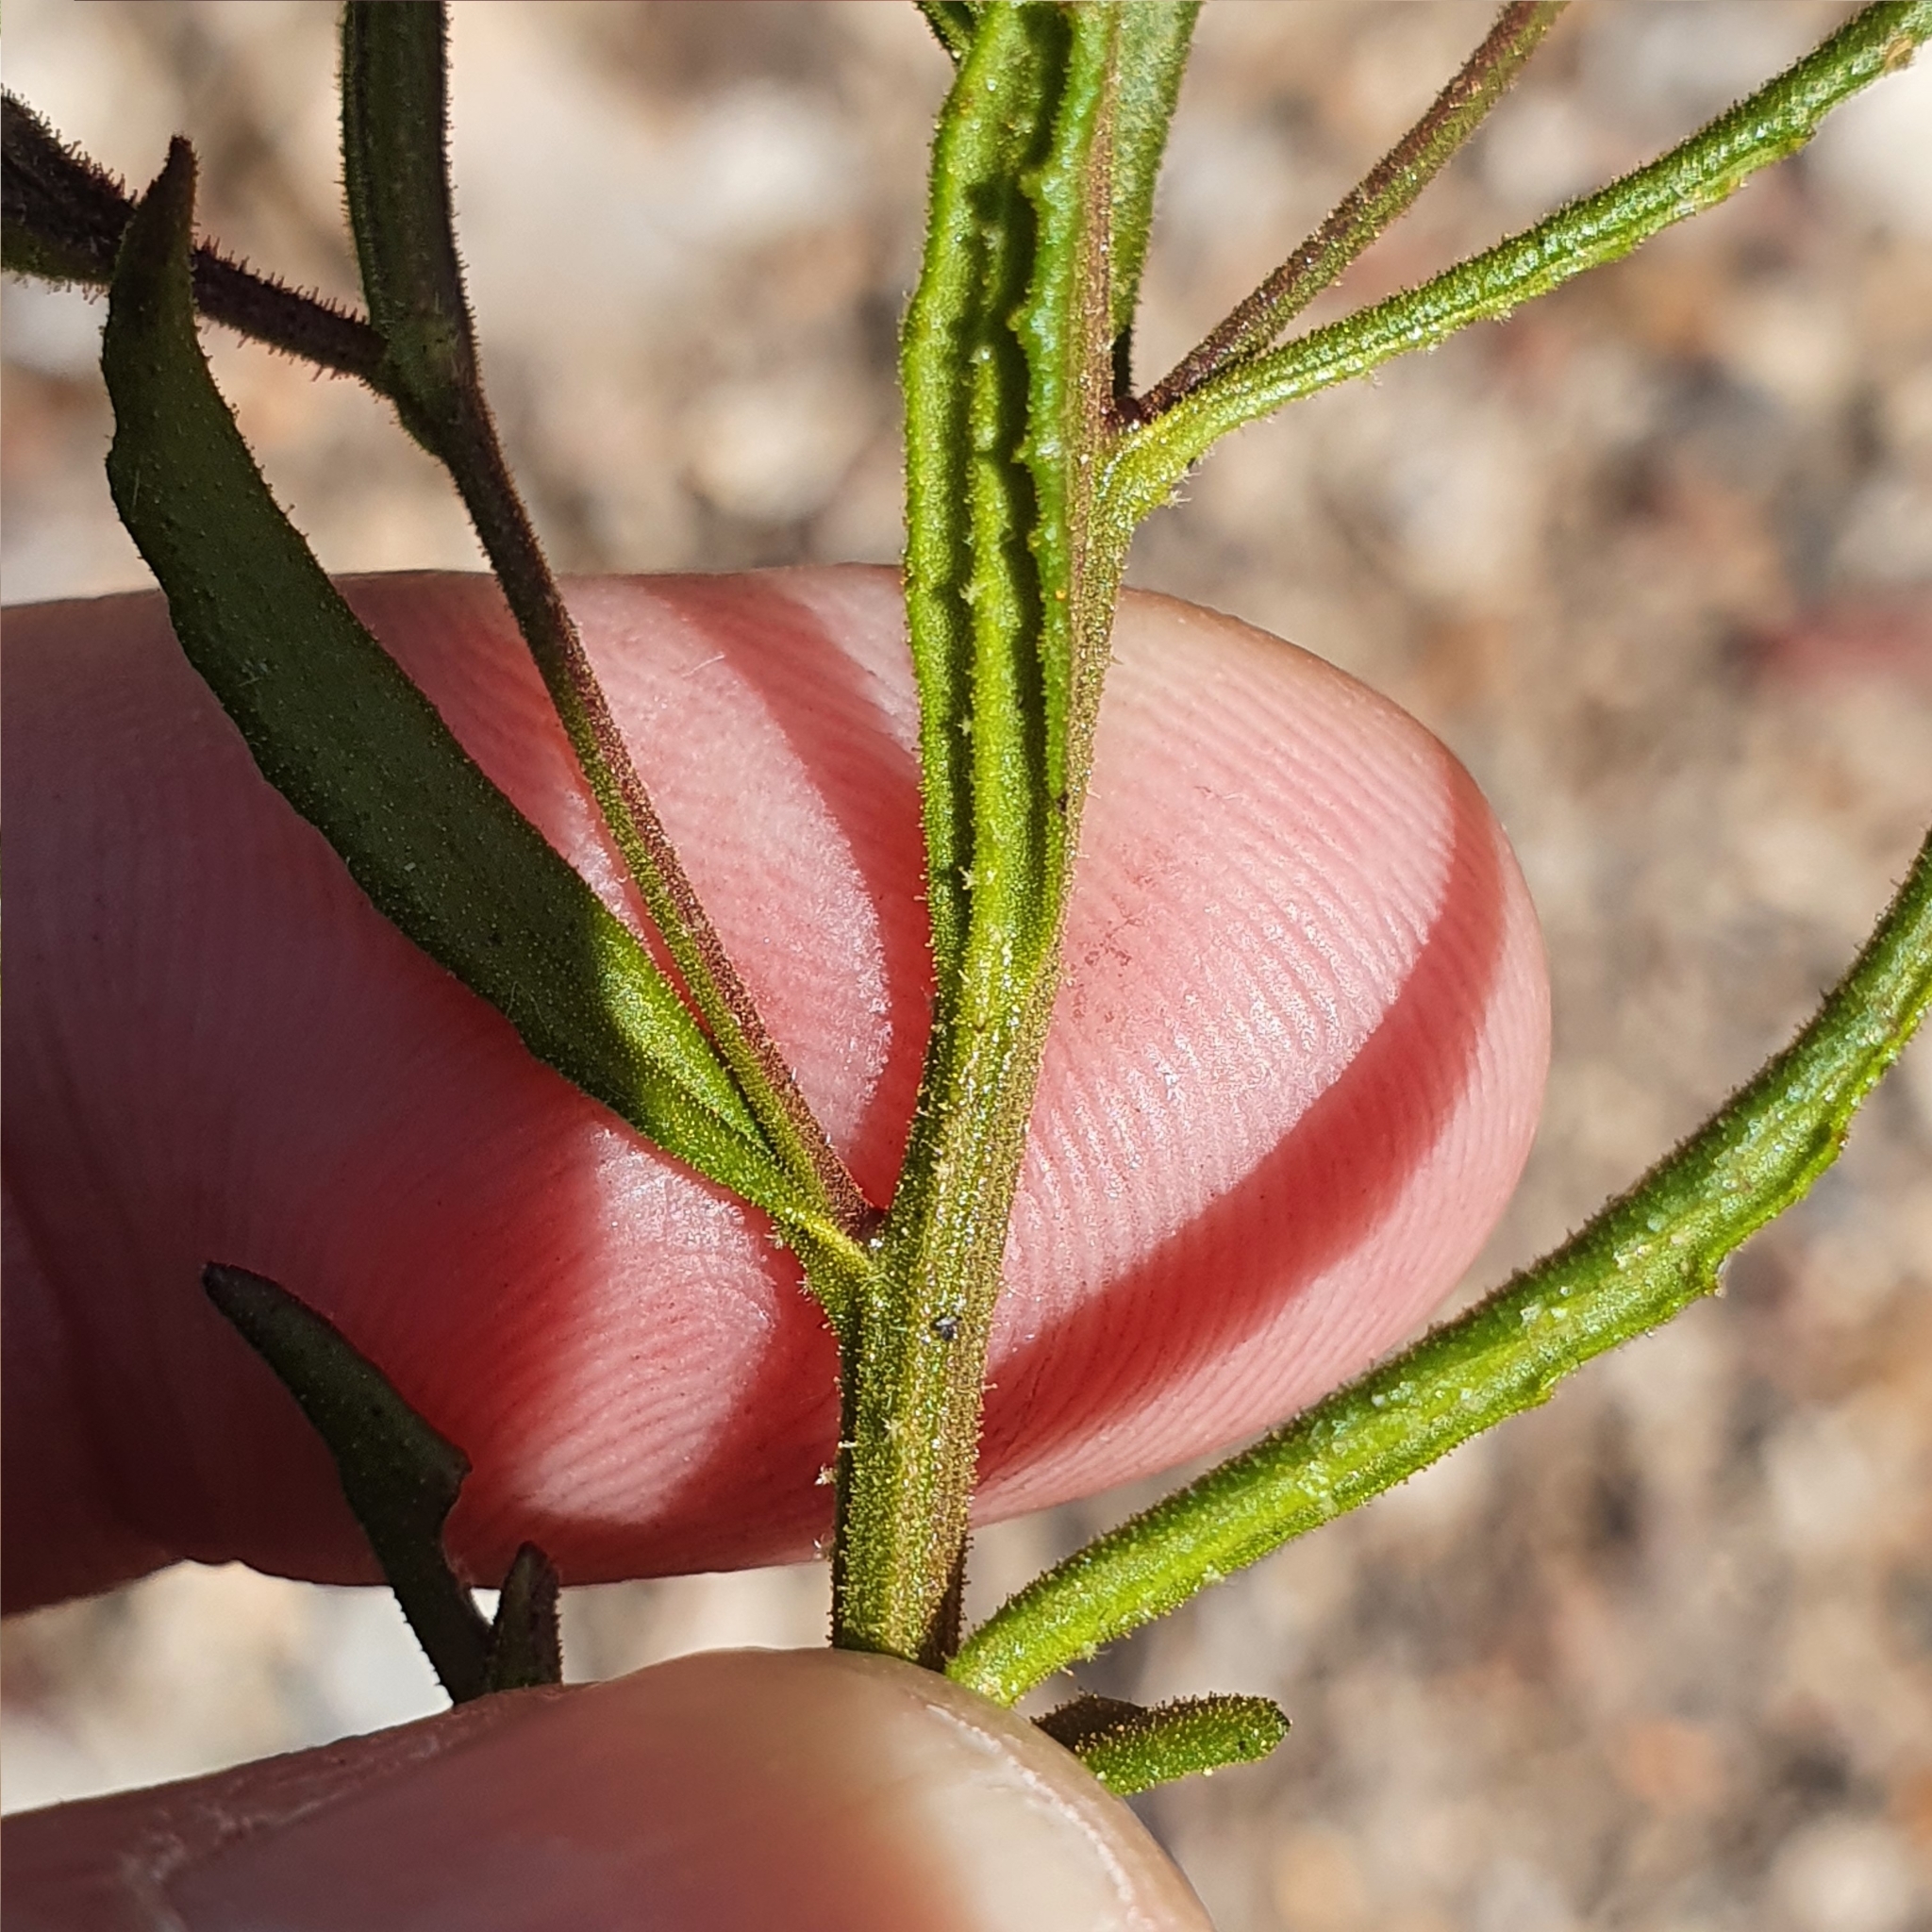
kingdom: Plantae
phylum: Tracheophyta
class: Magnoliopsida
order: Asterales
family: Goodeniaceae
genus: Goodenia
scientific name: Goodenia barbata
